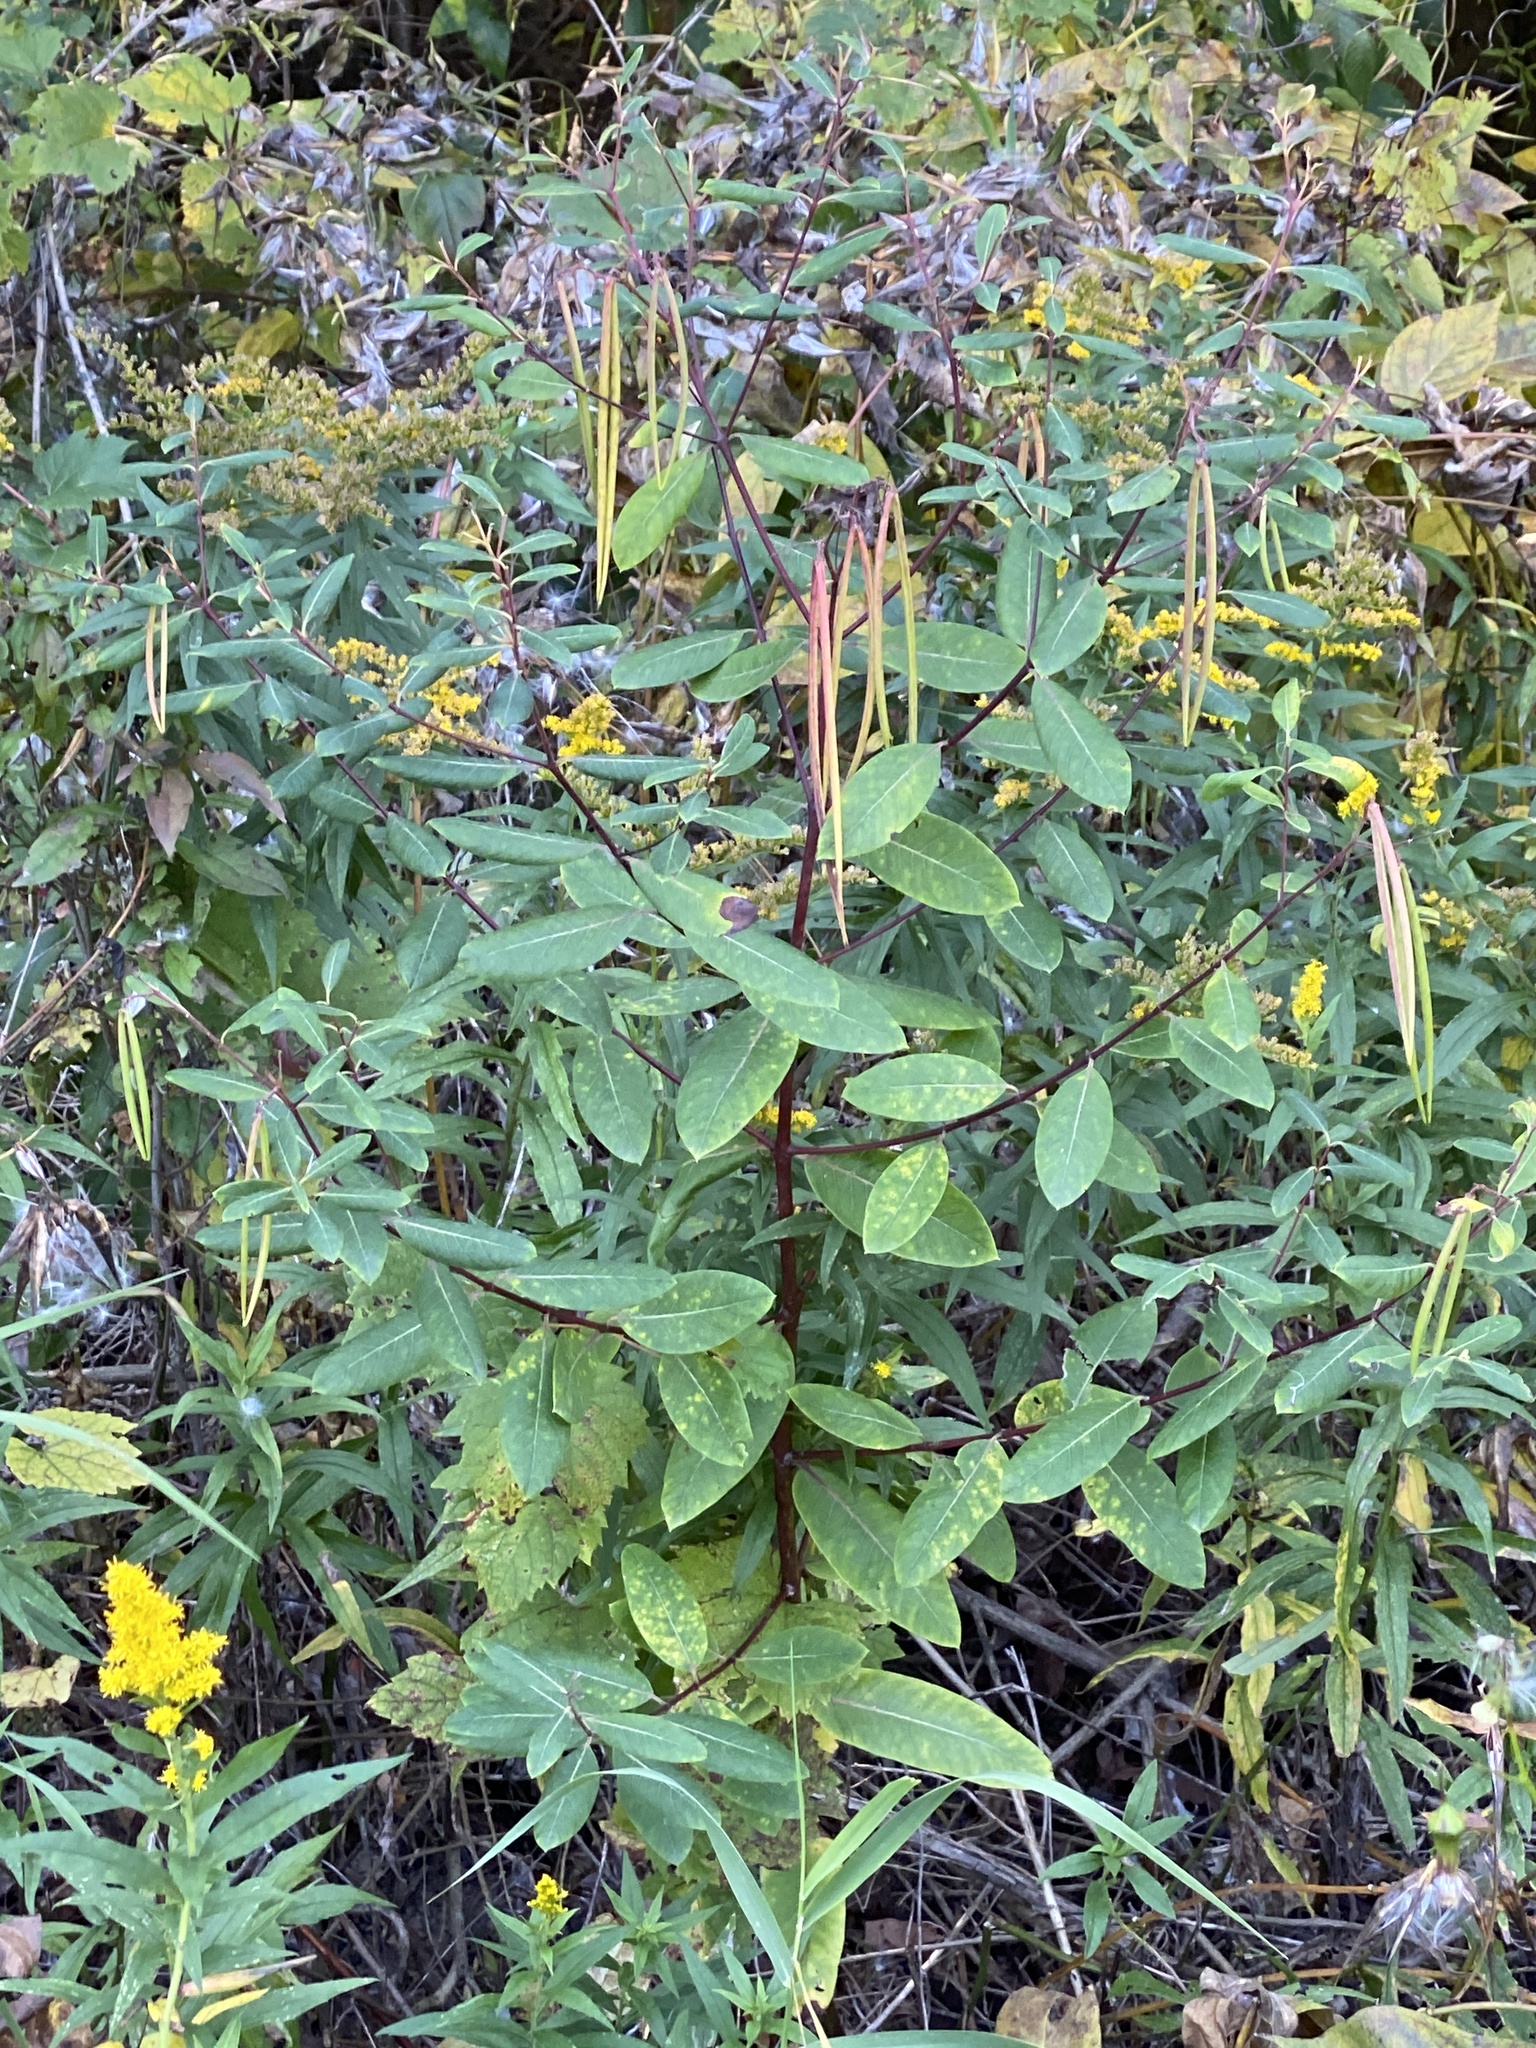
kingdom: Plantae
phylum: Tracheophyta
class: Magnoliopsida
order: Gentianales
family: Apocynaceae
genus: Apocynum
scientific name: Apocynum cannabinum
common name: Hemp dogbane
